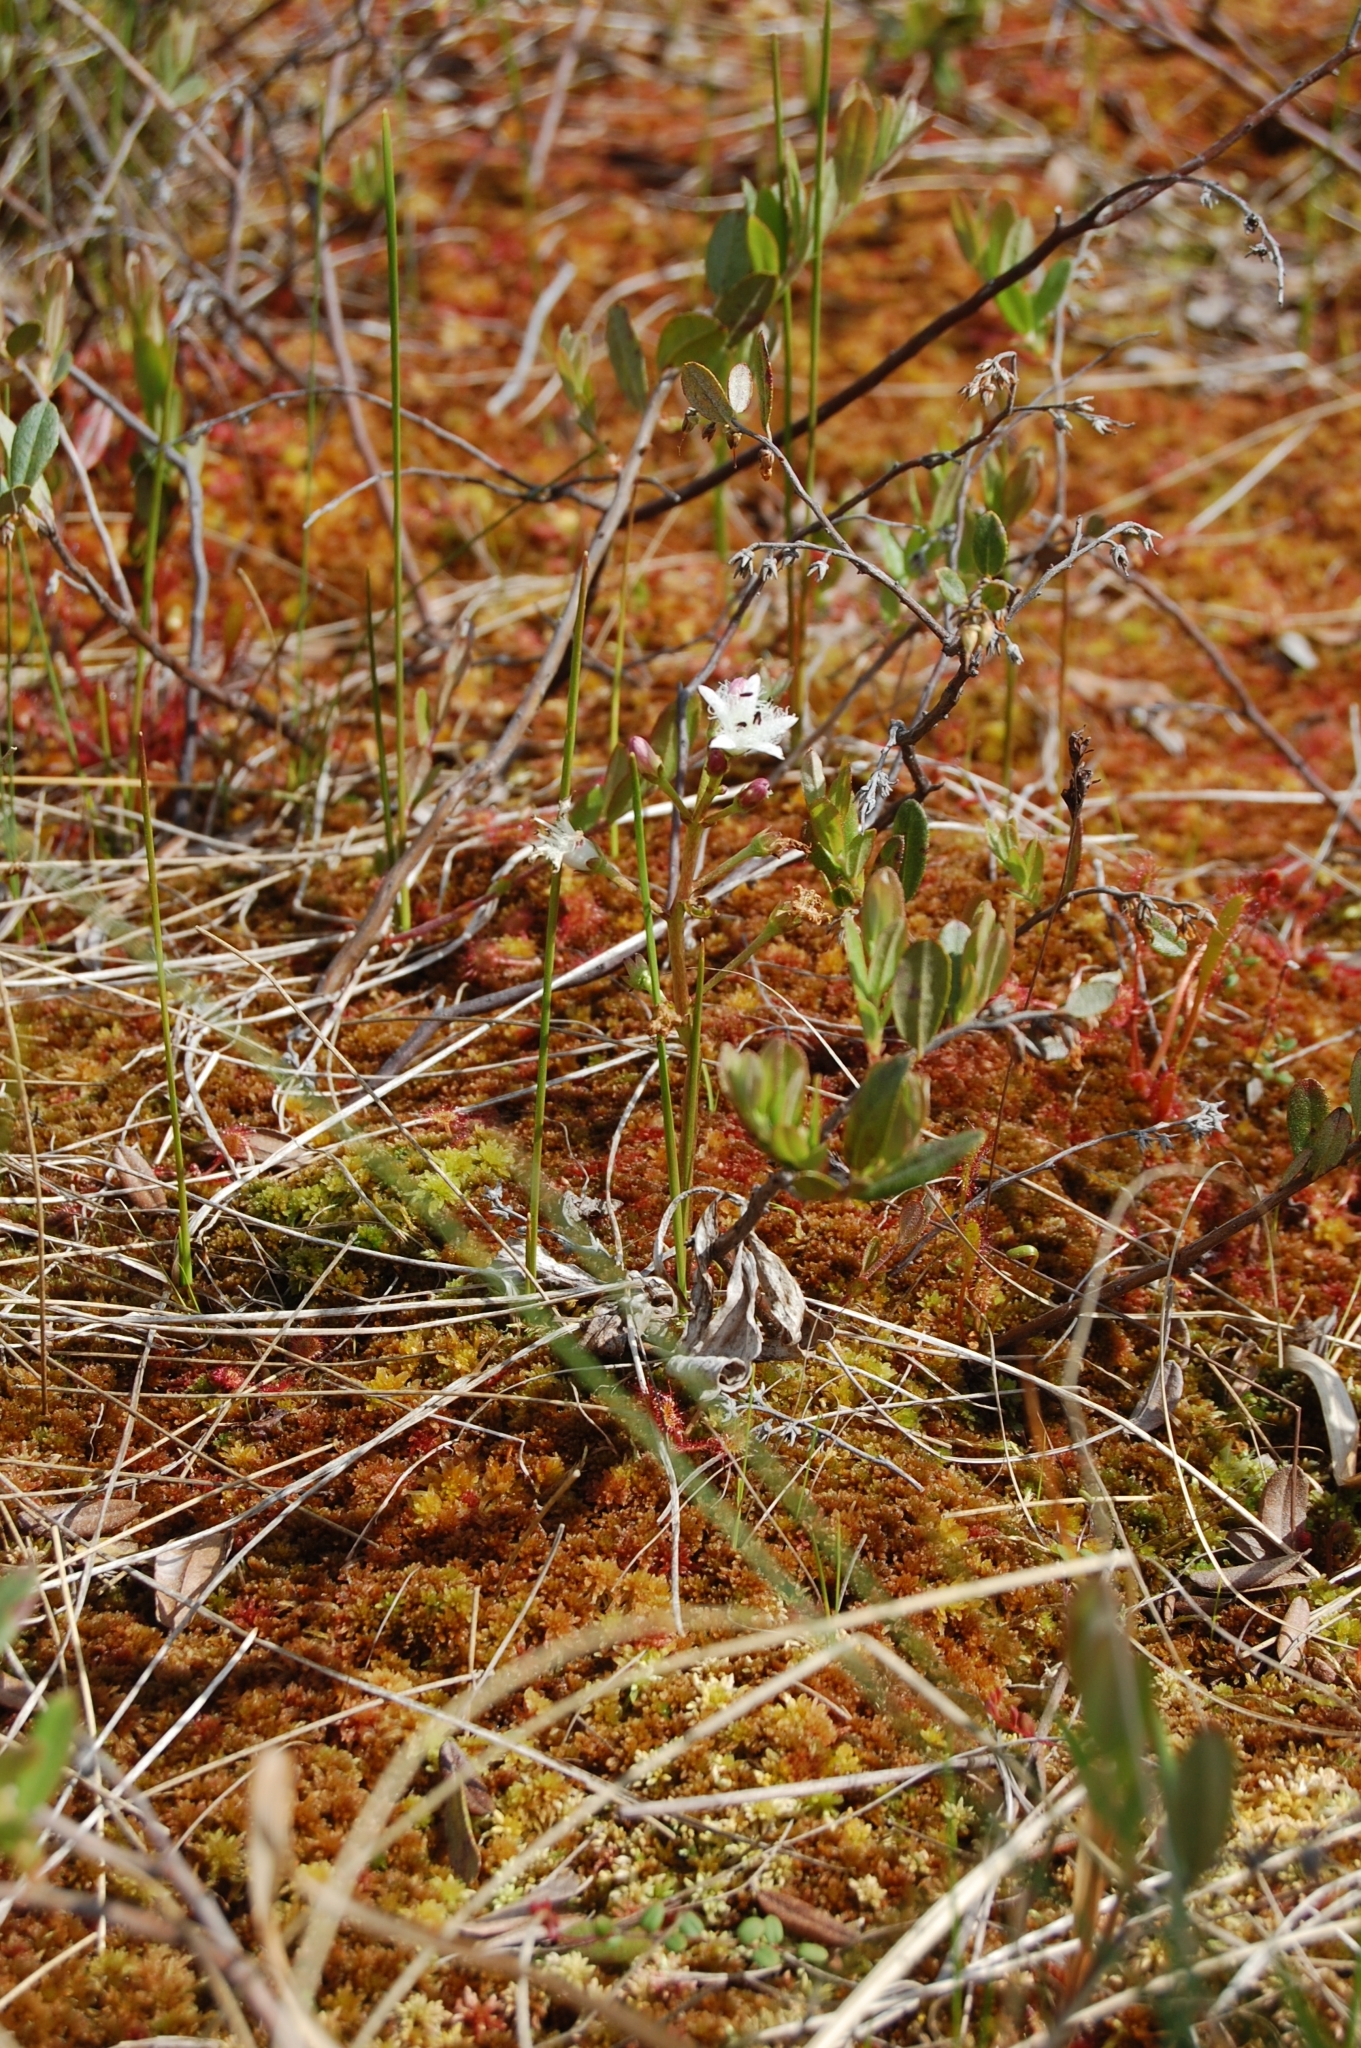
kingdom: Plantae
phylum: Tracheophyta
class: Magnoliopsida
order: Asterales
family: Menyanthaceae
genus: Menyanthes
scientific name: Menyanthes trifoliata
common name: Bogbean
